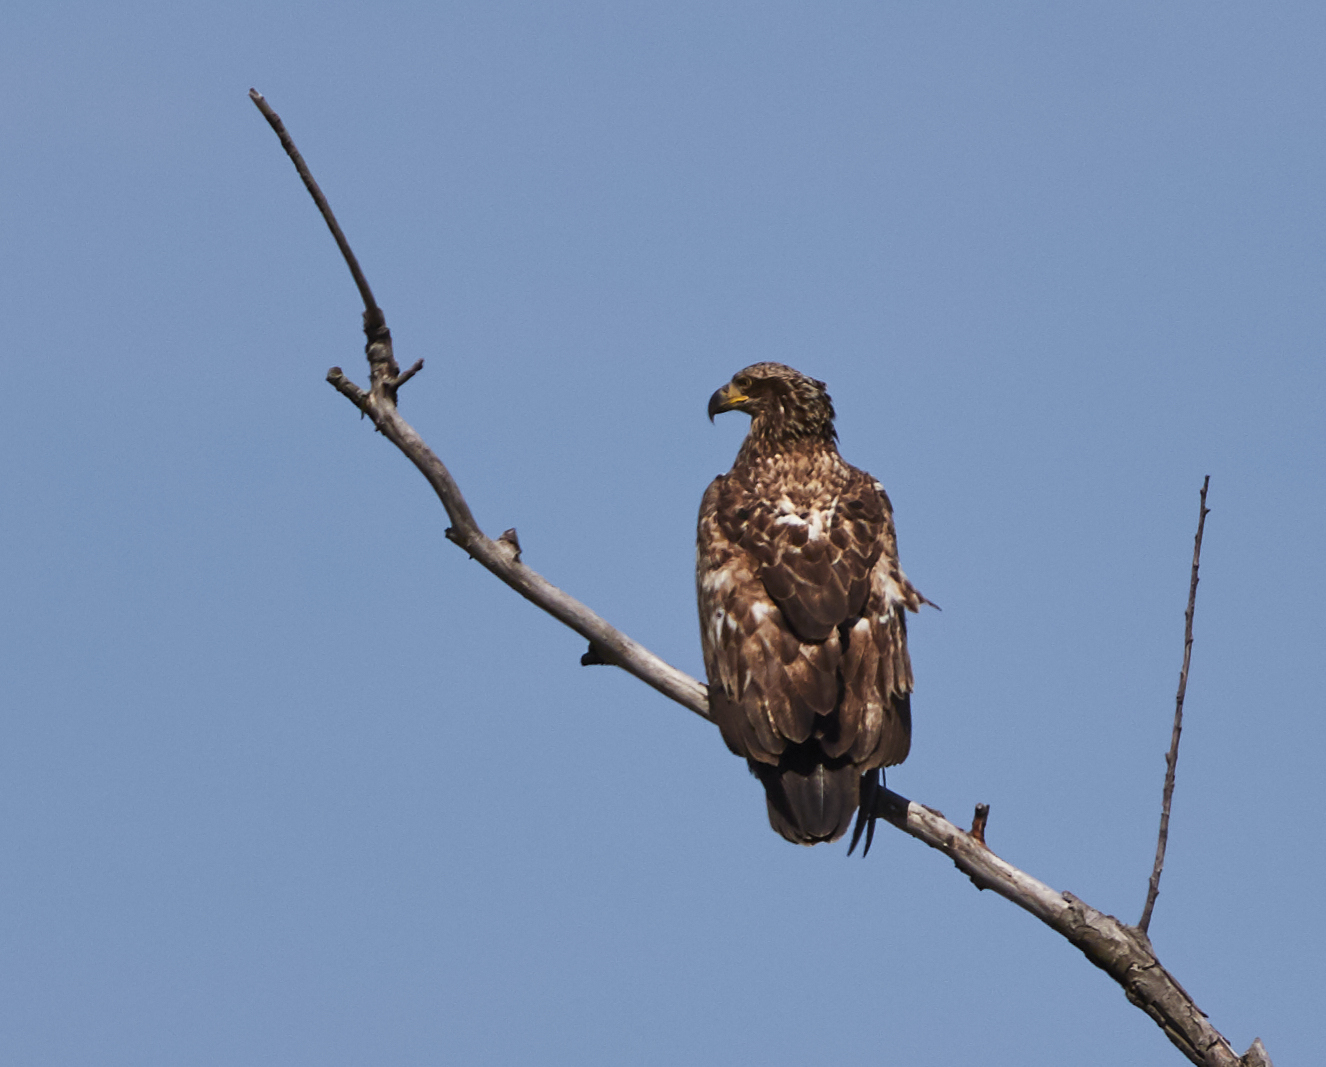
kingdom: Animalia
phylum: Chordata
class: Aves
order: Accipitriformes
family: Accipitridae
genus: Haliaeetus
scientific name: Haliaeetus leucocephalus
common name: Bald eagle
